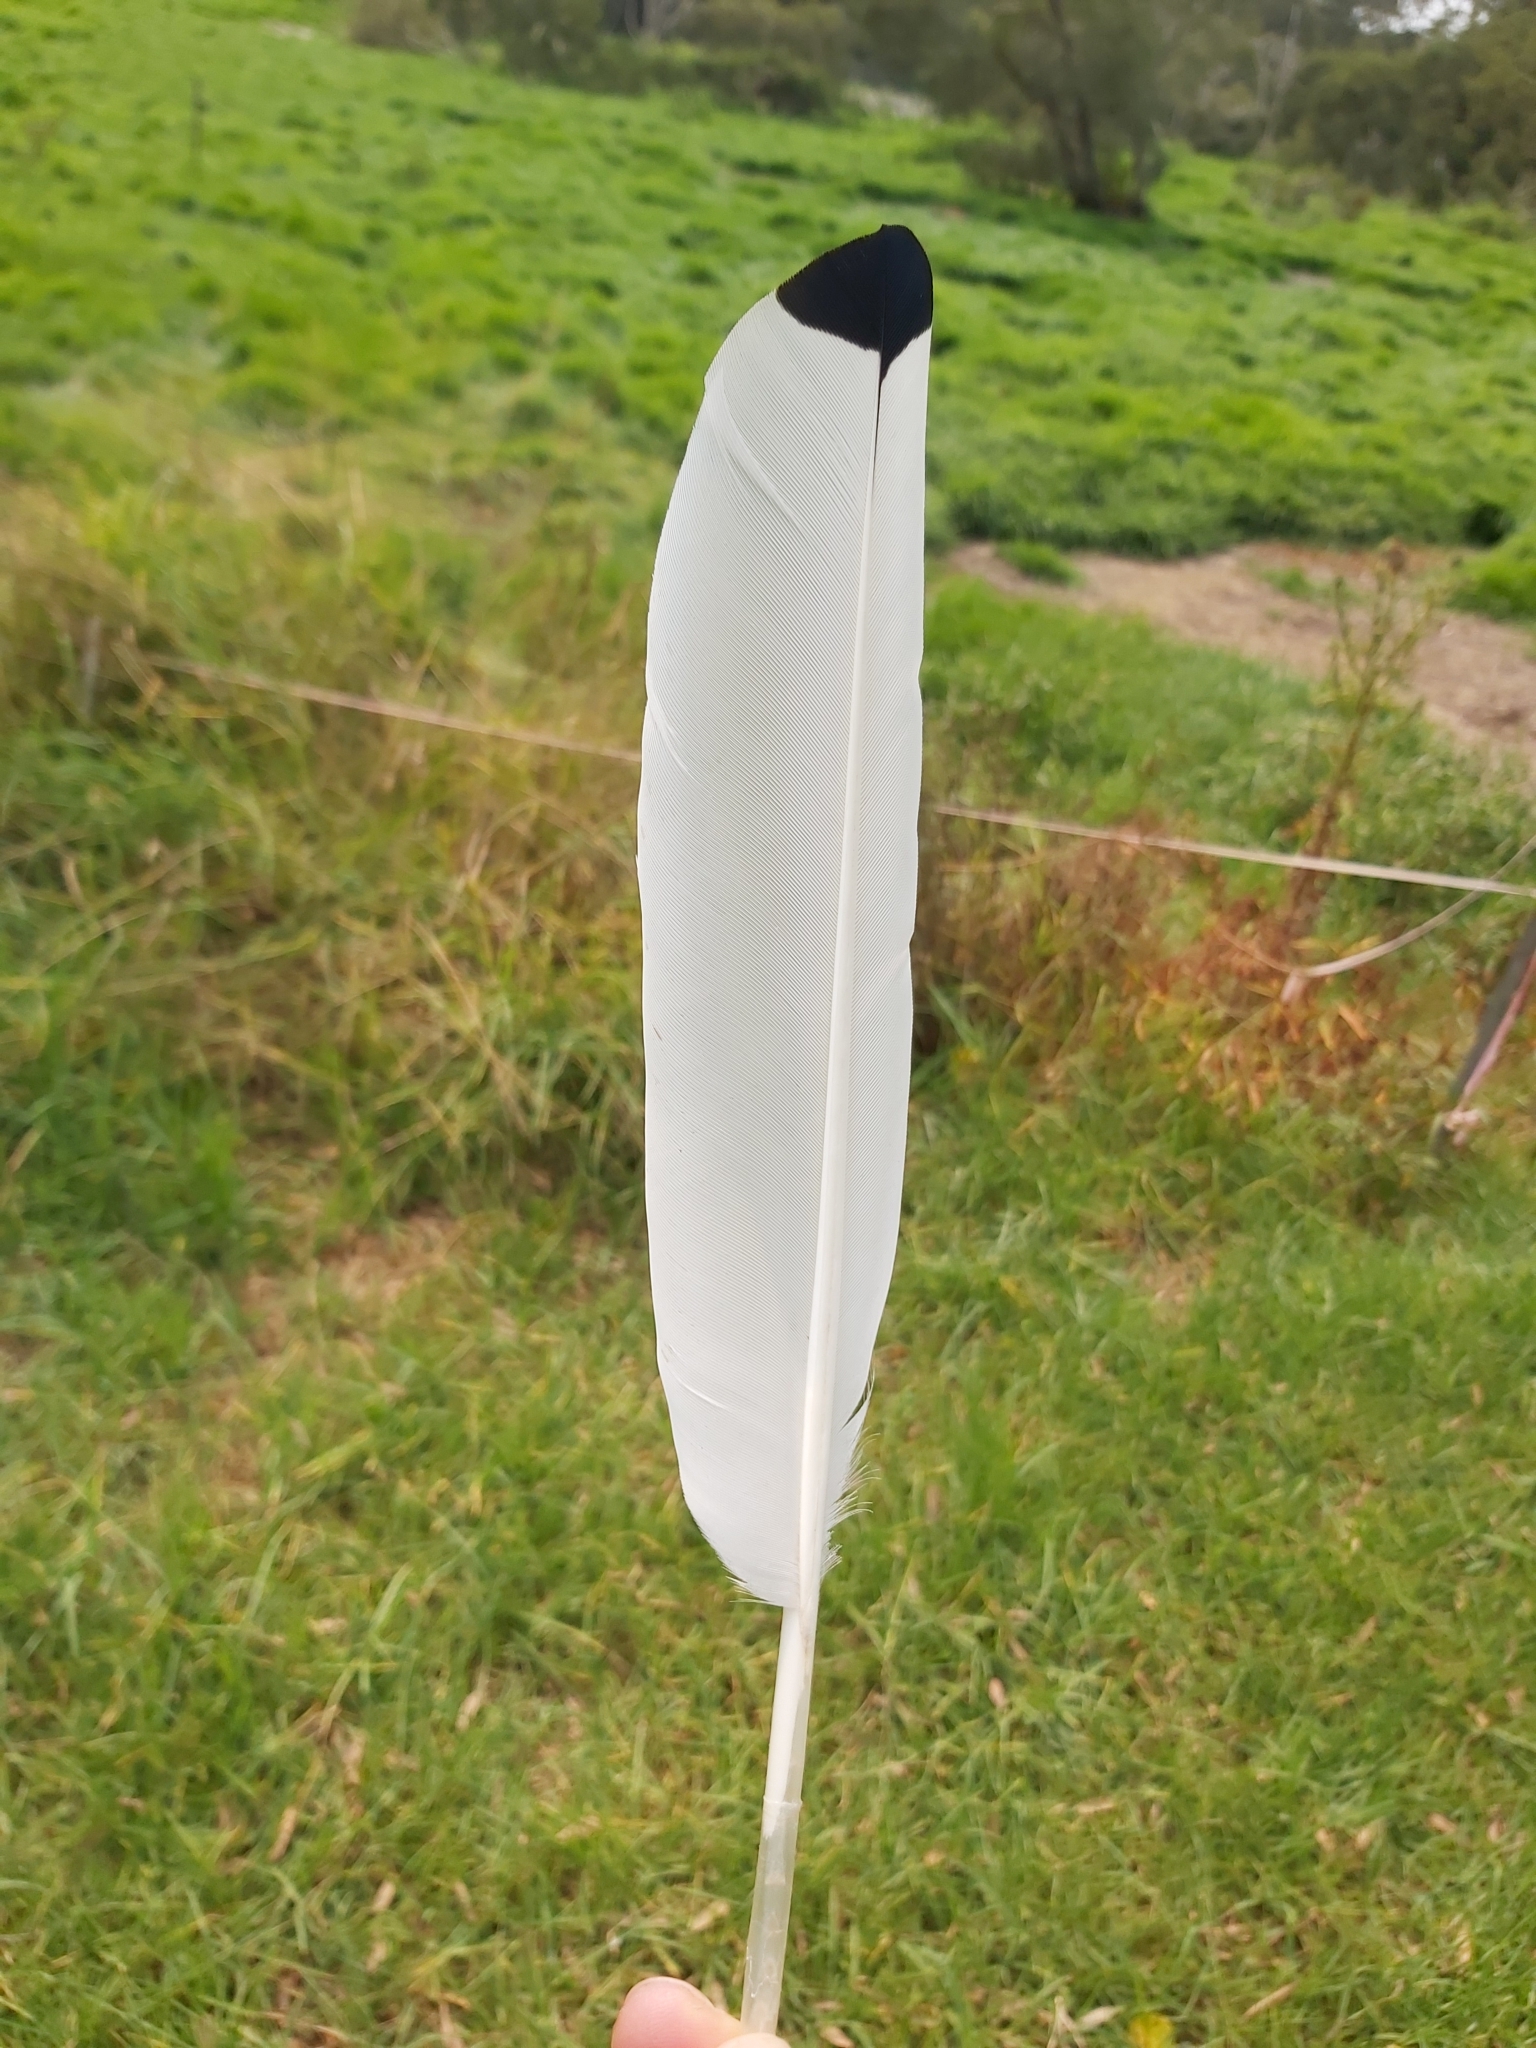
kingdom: Animalia
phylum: Chordata
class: Aves
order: Pelecaniformes
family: Threskiornithidae
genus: Threskiornis
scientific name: Threskiornis molucca
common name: Australian white ibis
